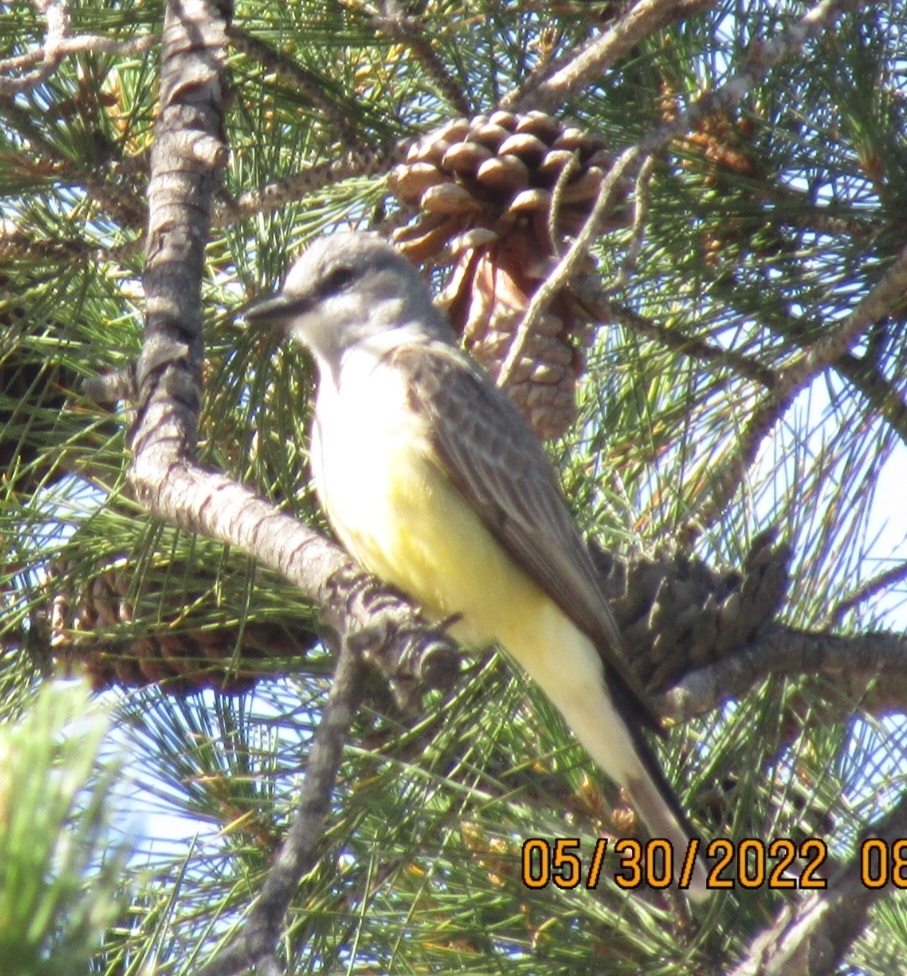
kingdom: Animalia
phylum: Chordata
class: Aves
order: Passeriformes
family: Tyrannidae
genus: Tyrannus
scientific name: Tyrannus vociferans
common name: Cassin's kingbird
